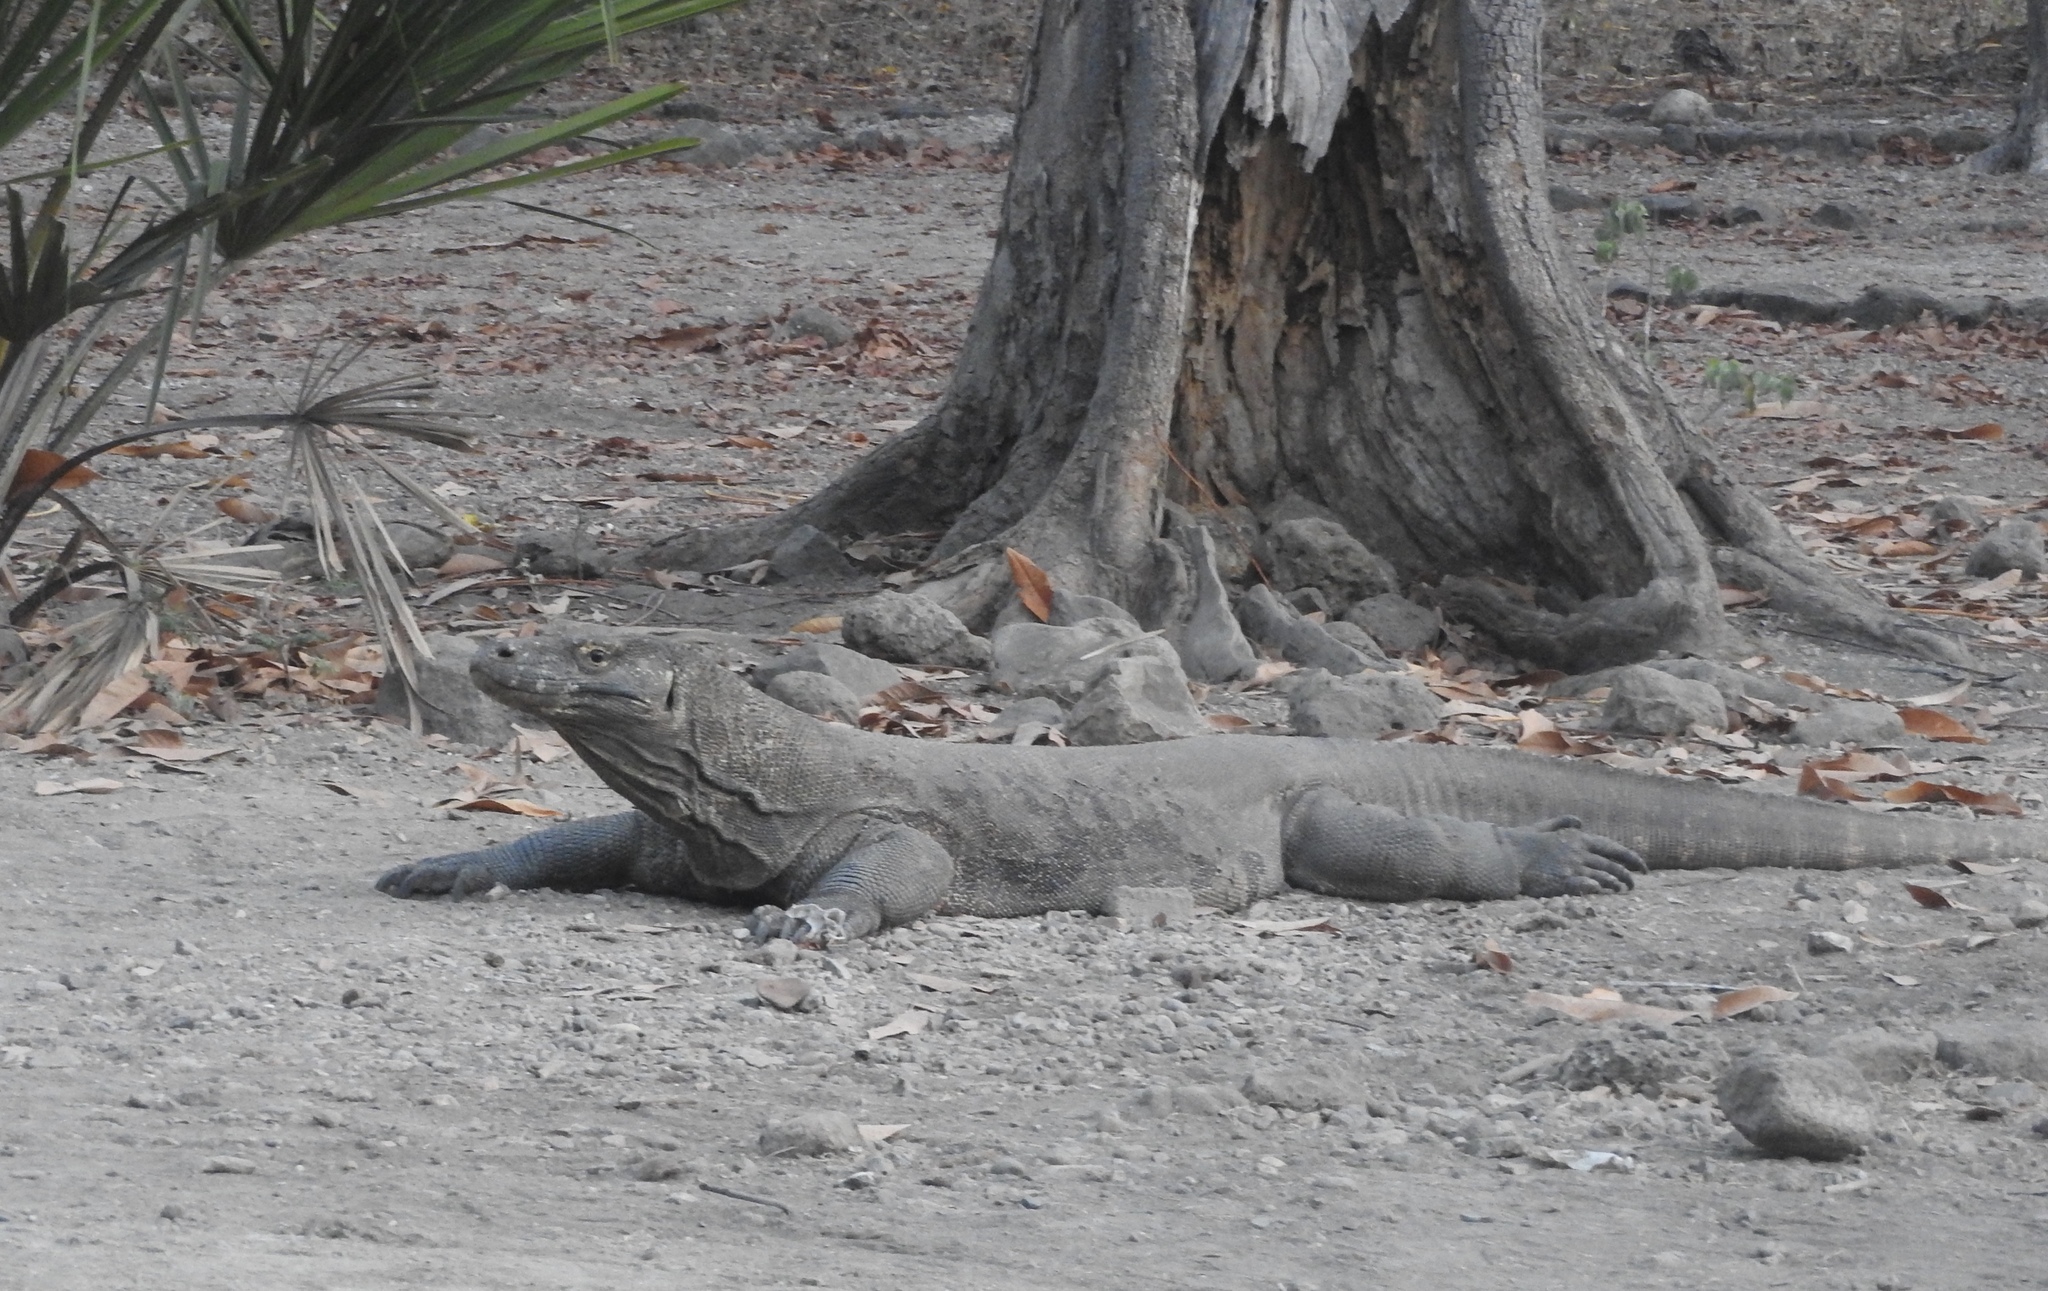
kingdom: Animalia
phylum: Chordata
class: Squamata
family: Varanidae
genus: Varanus
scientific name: Varanus komodoensis
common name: Komodo dragon
